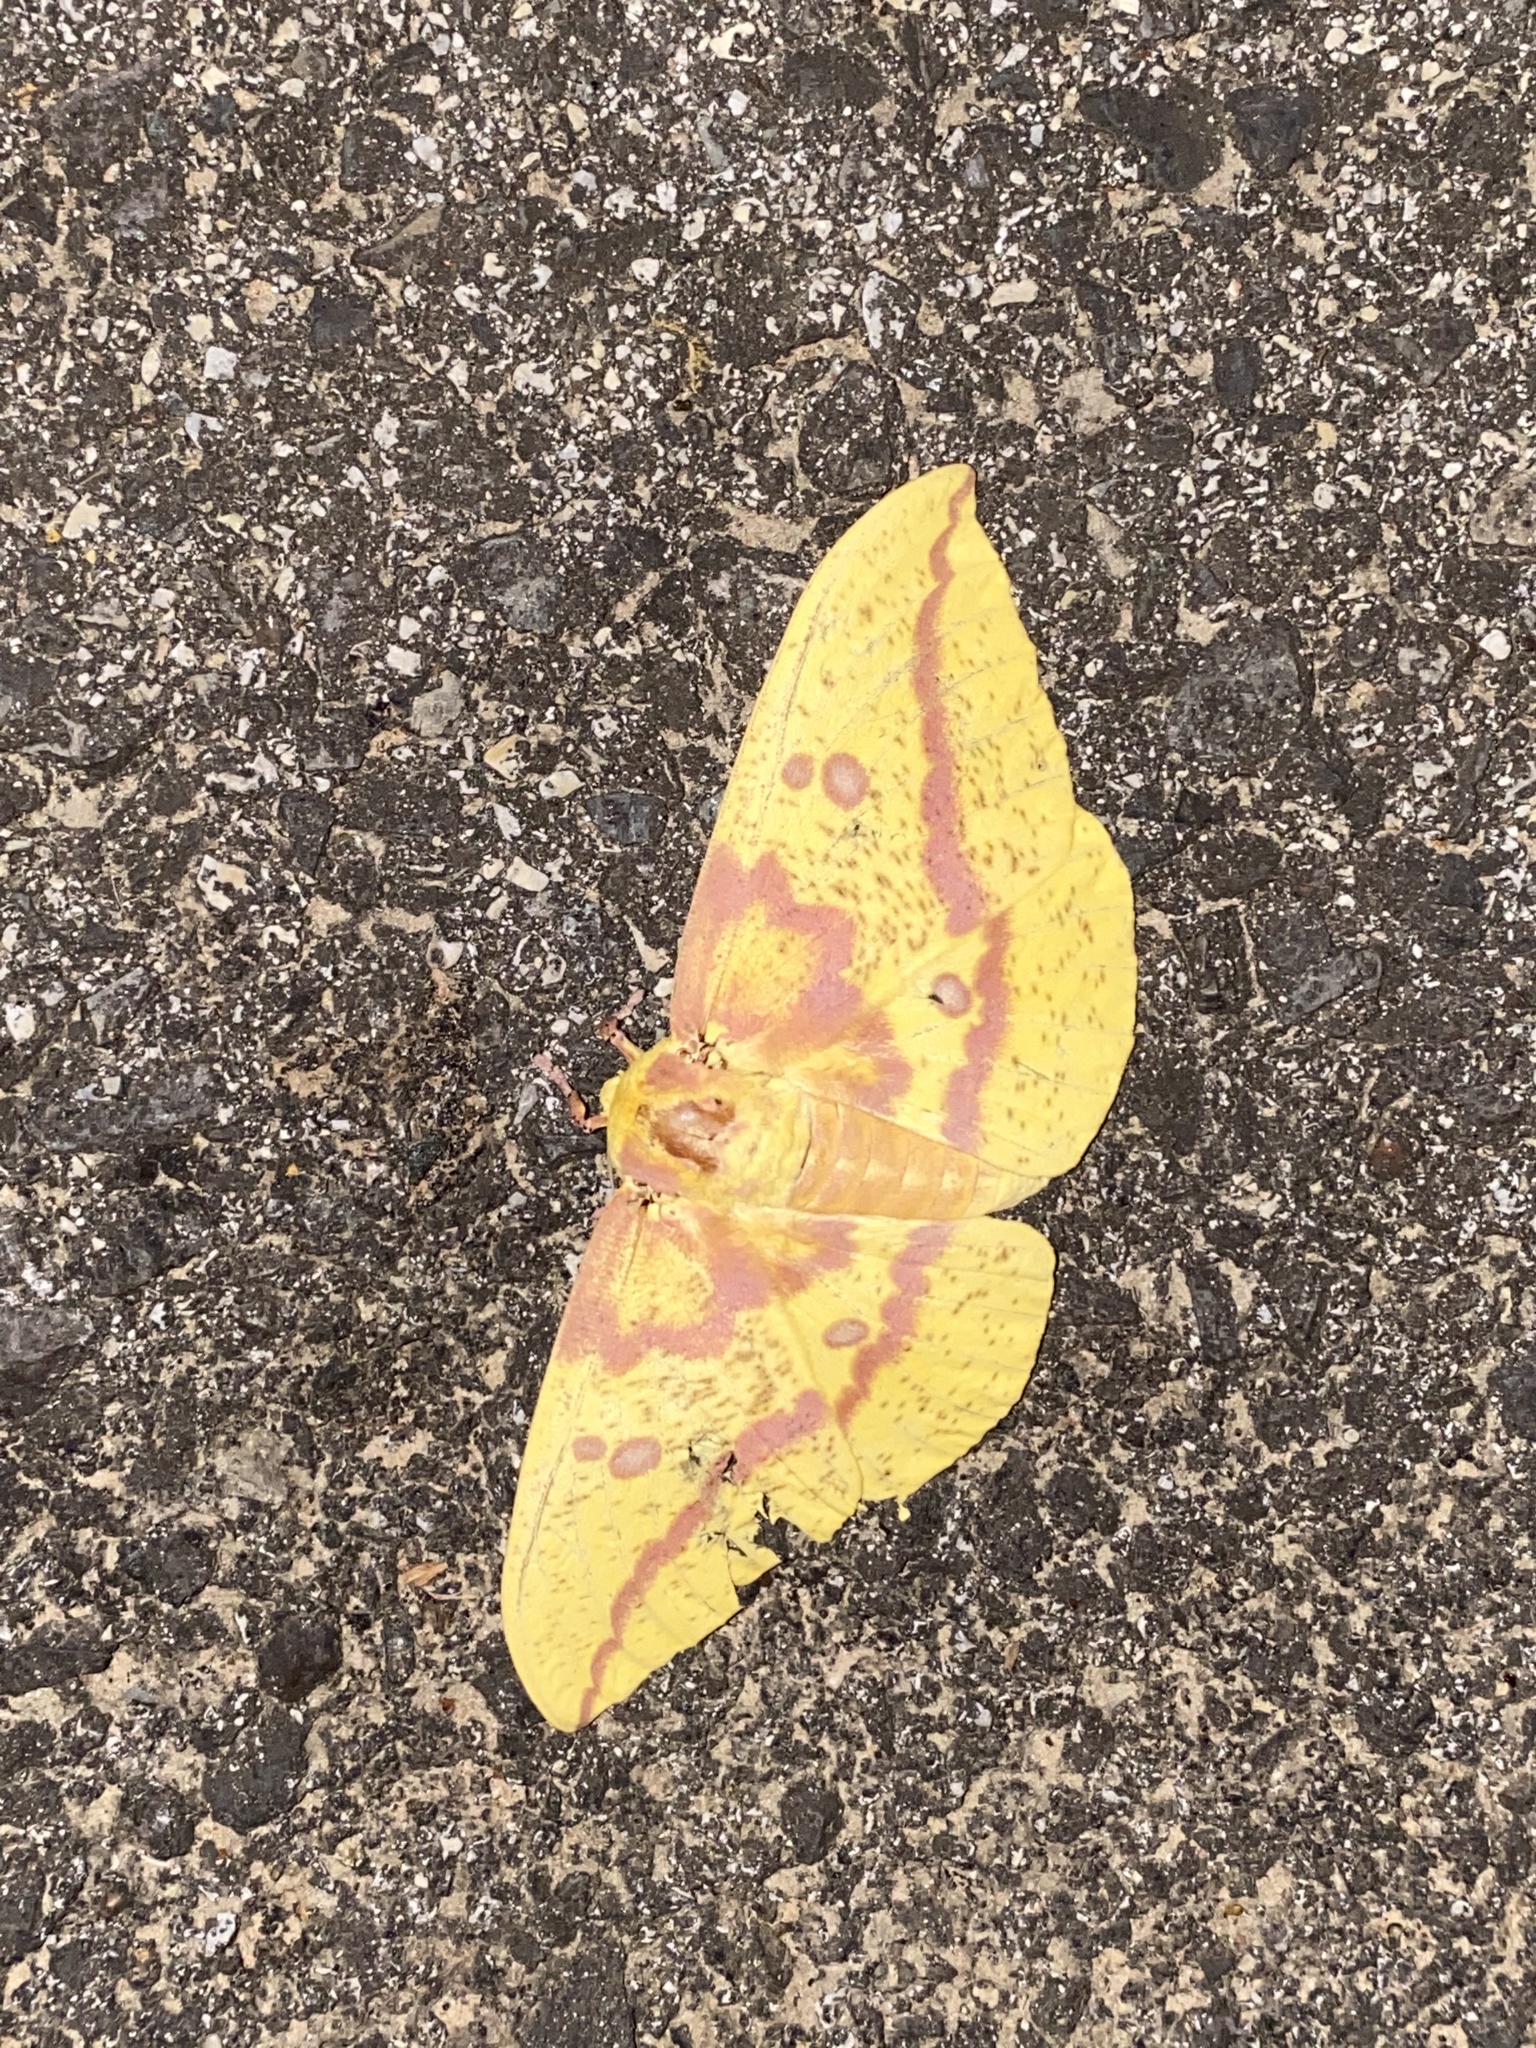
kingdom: Animalia
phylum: Arthropoda
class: Insecta
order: Lepidoptera
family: Saturniidae
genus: Eacles
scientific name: Eacles imperialis
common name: Imperial moth
